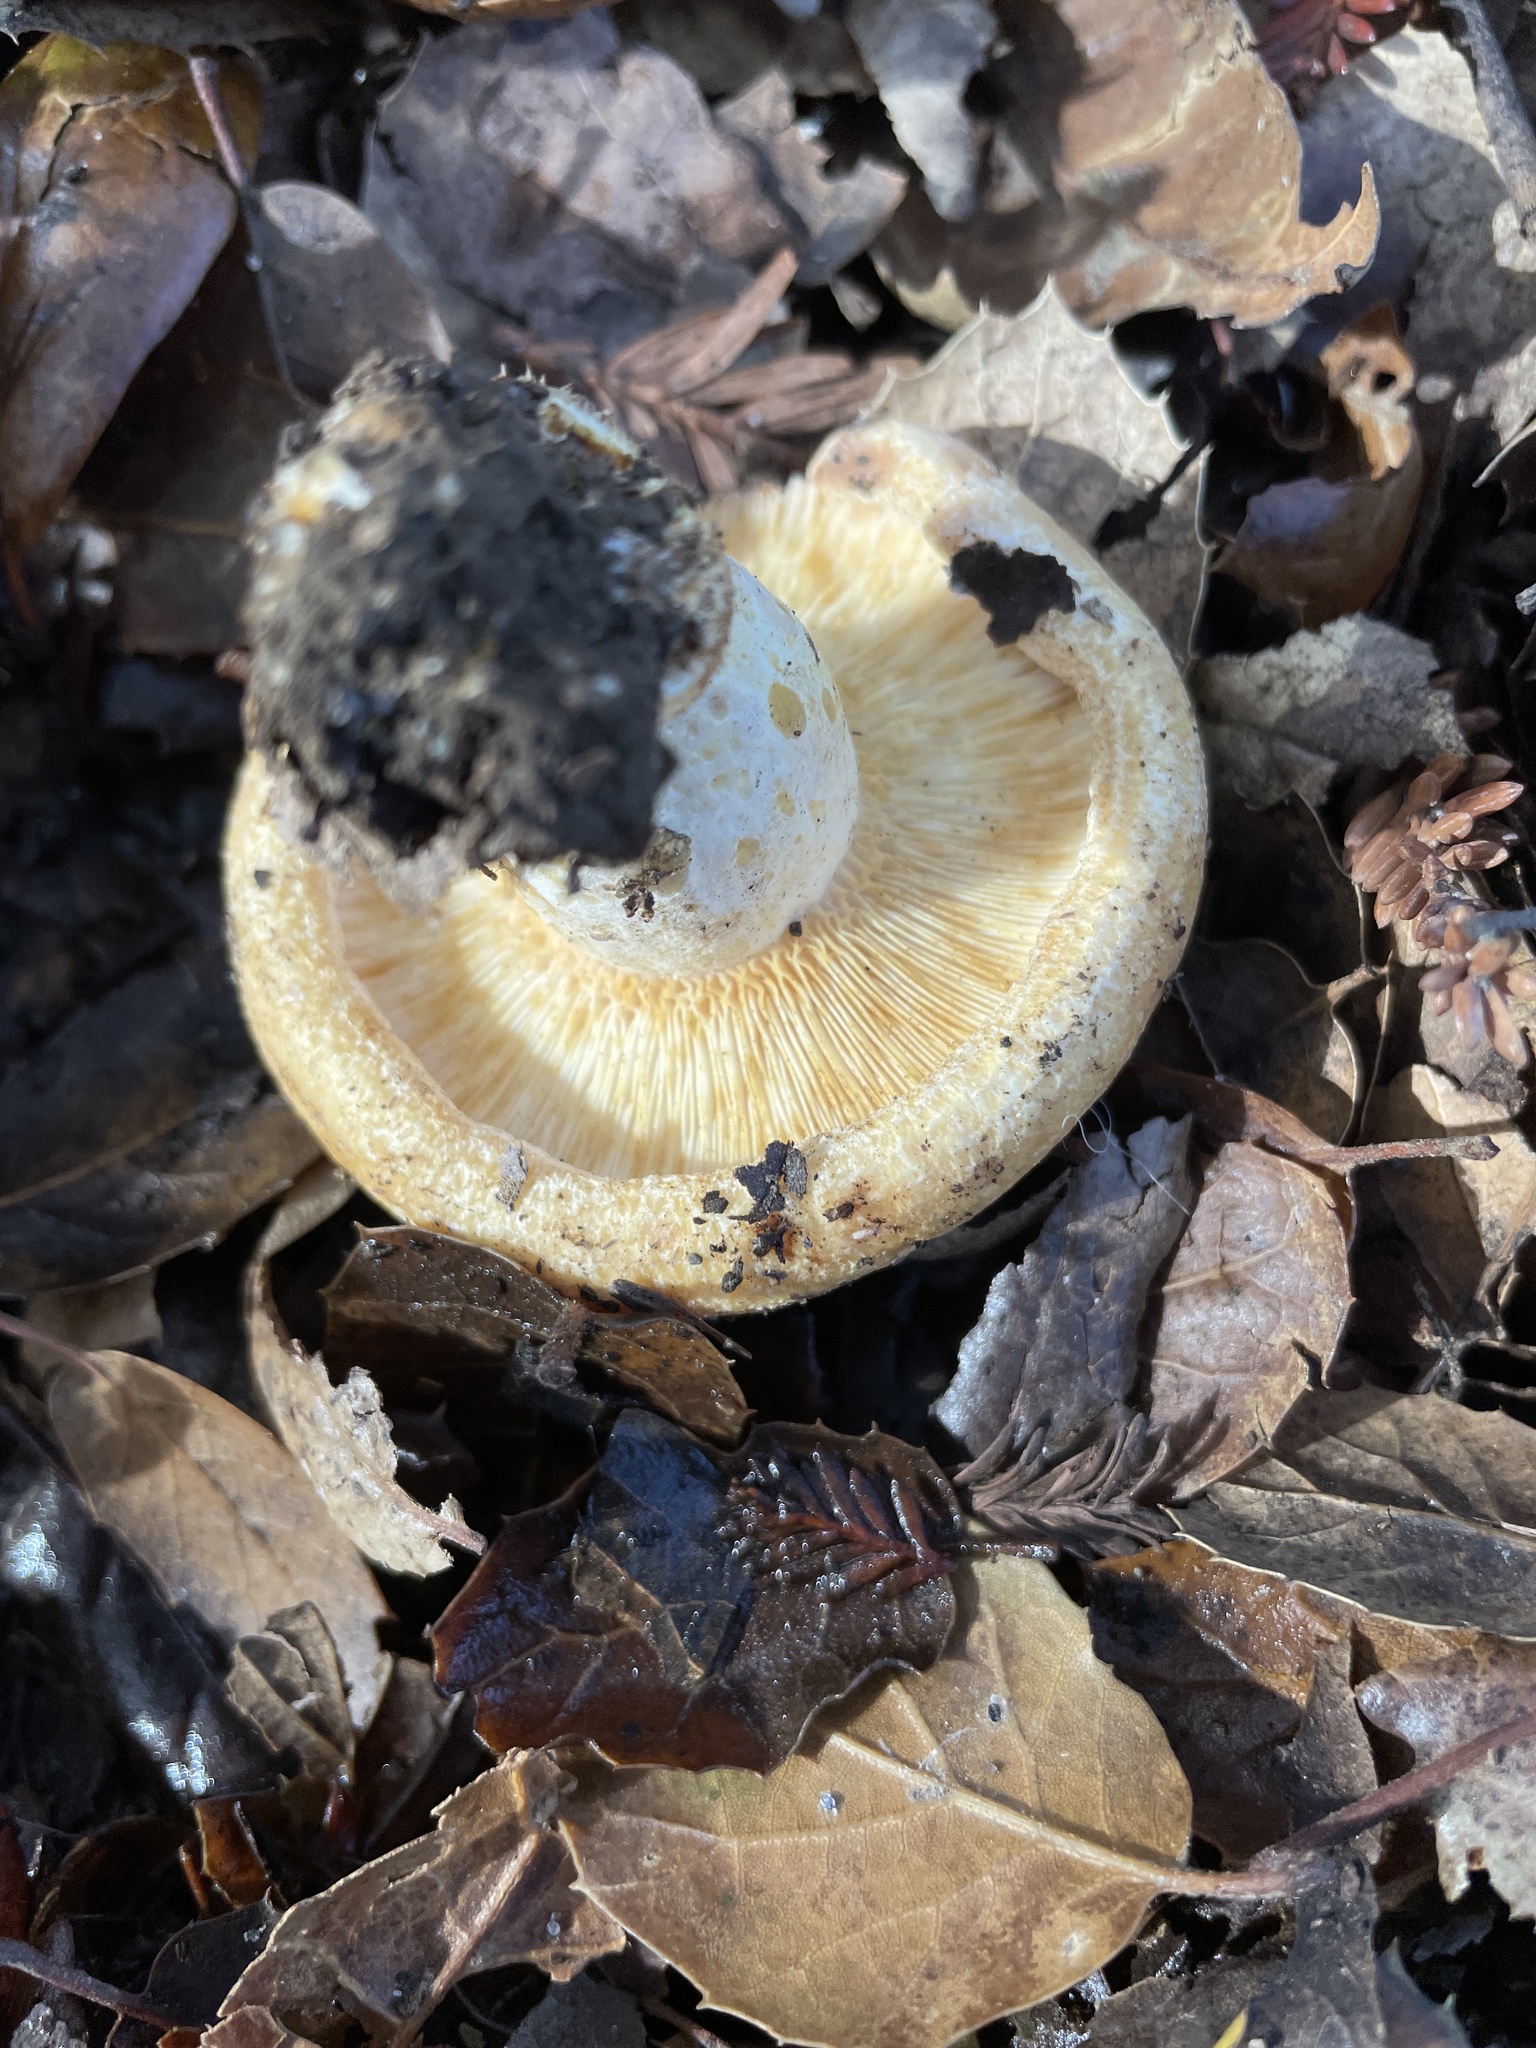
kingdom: Fungi
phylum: Basidiomycota
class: Agaricomycetes
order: Russulales
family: Russulaceae
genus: Lactarius
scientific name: Lactarius alnicola
